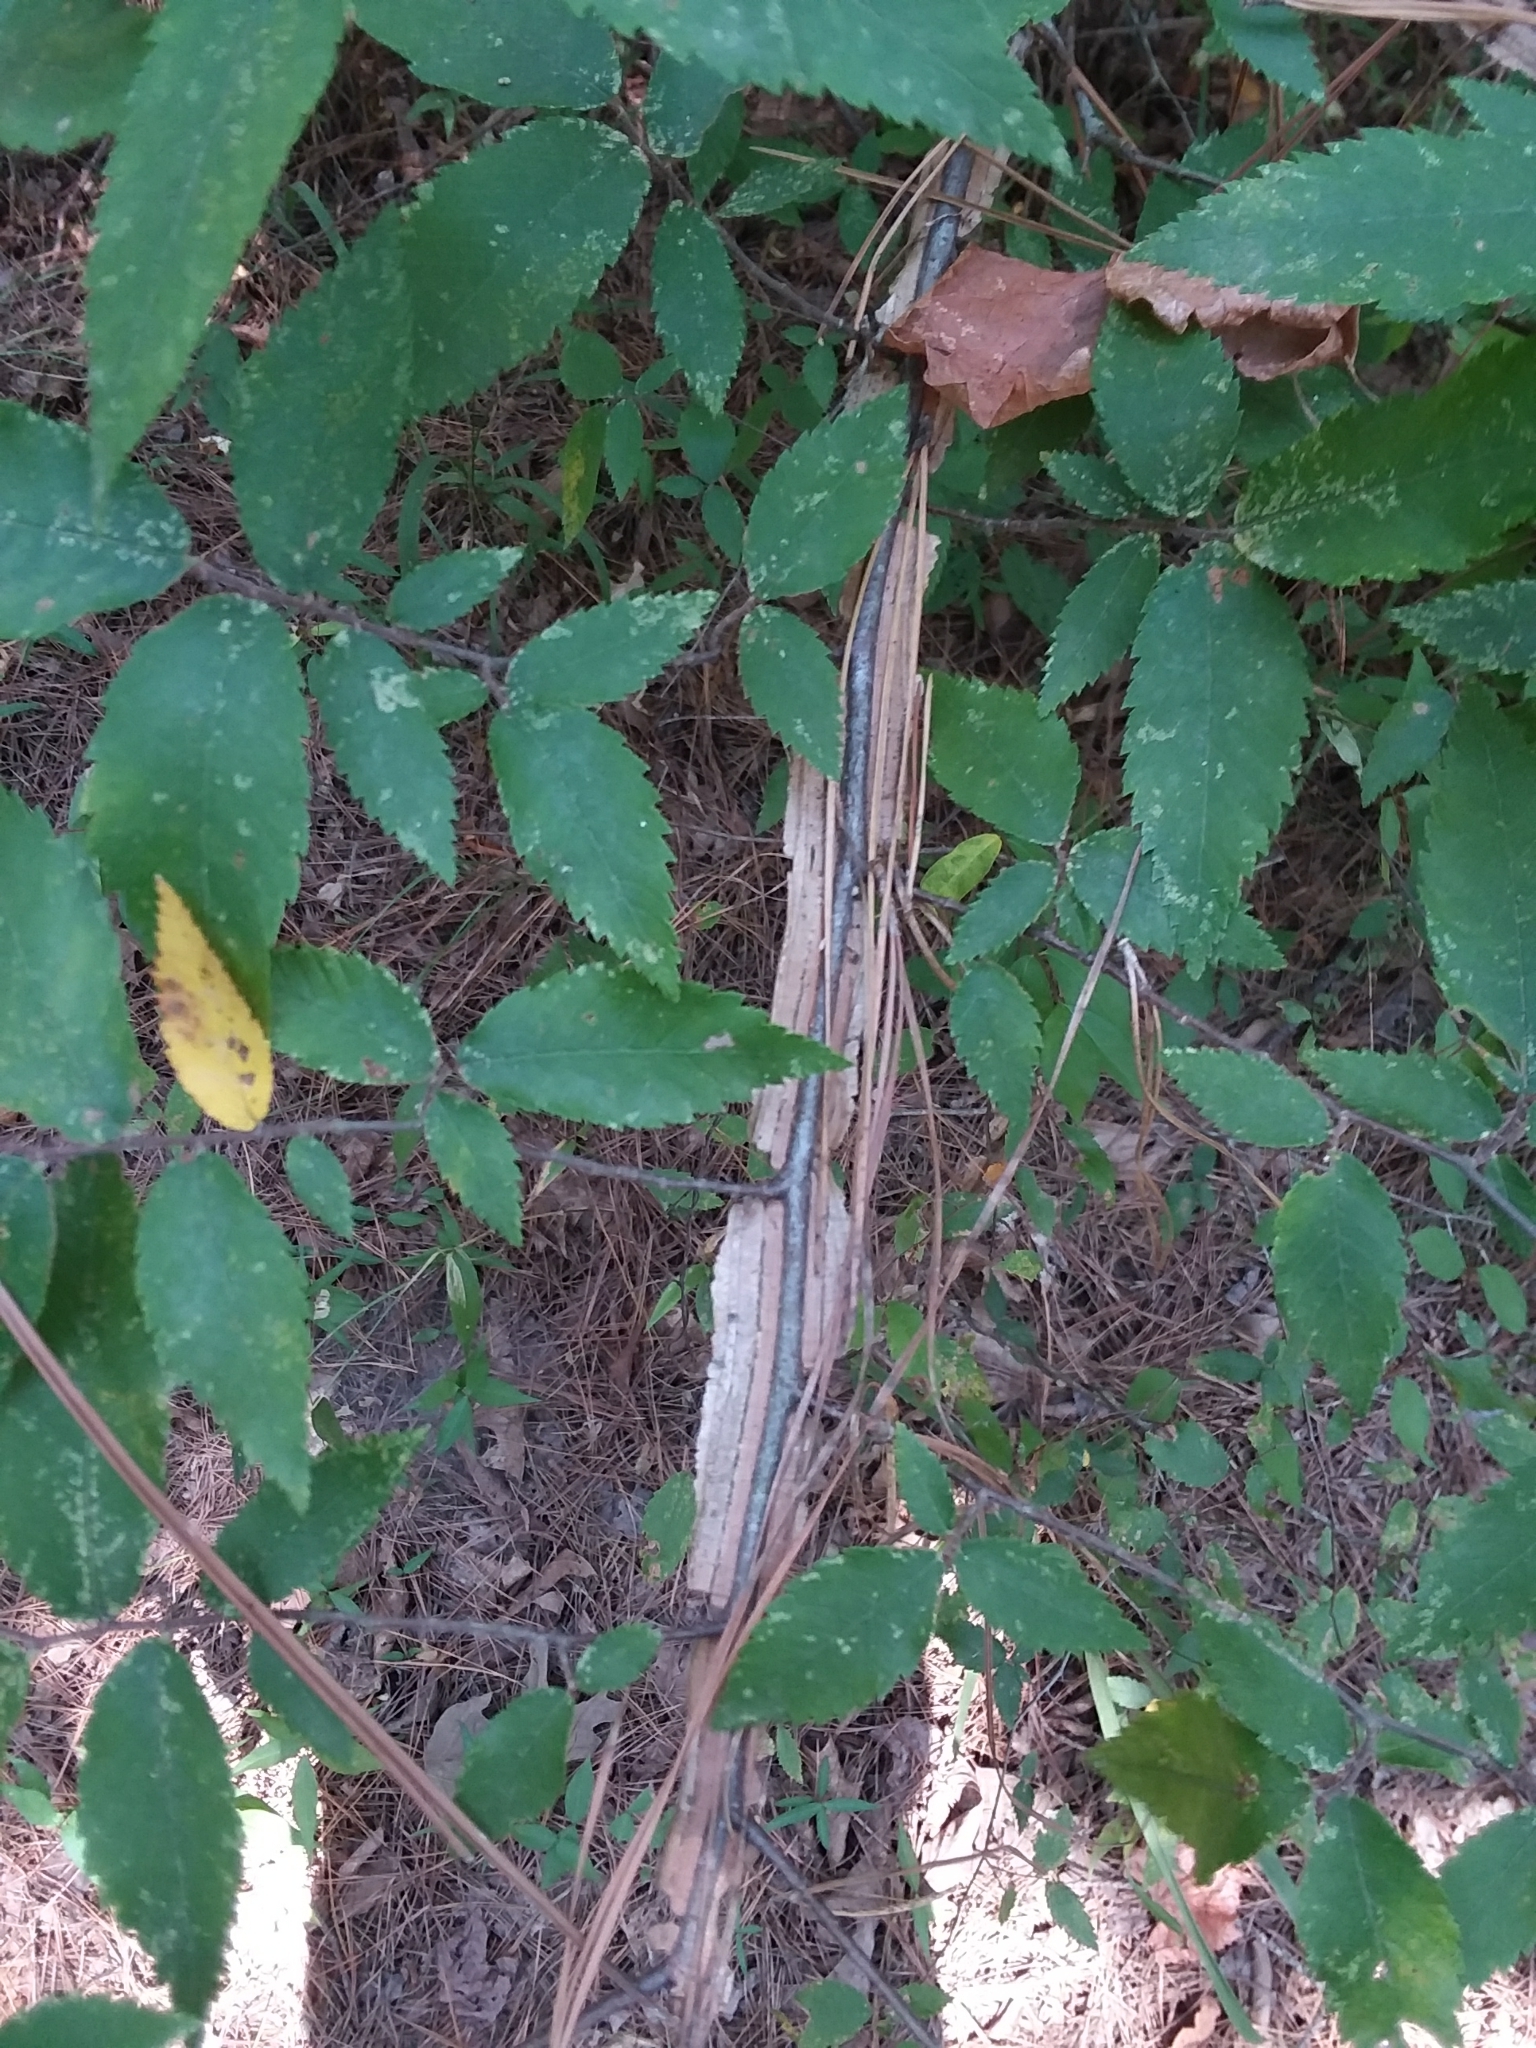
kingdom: Plantae
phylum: Tracheophyta
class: Magnoliopsida
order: Rosales
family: Ulmaceae
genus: Ulmus
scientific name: Ulmus alata
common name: Winged elm
